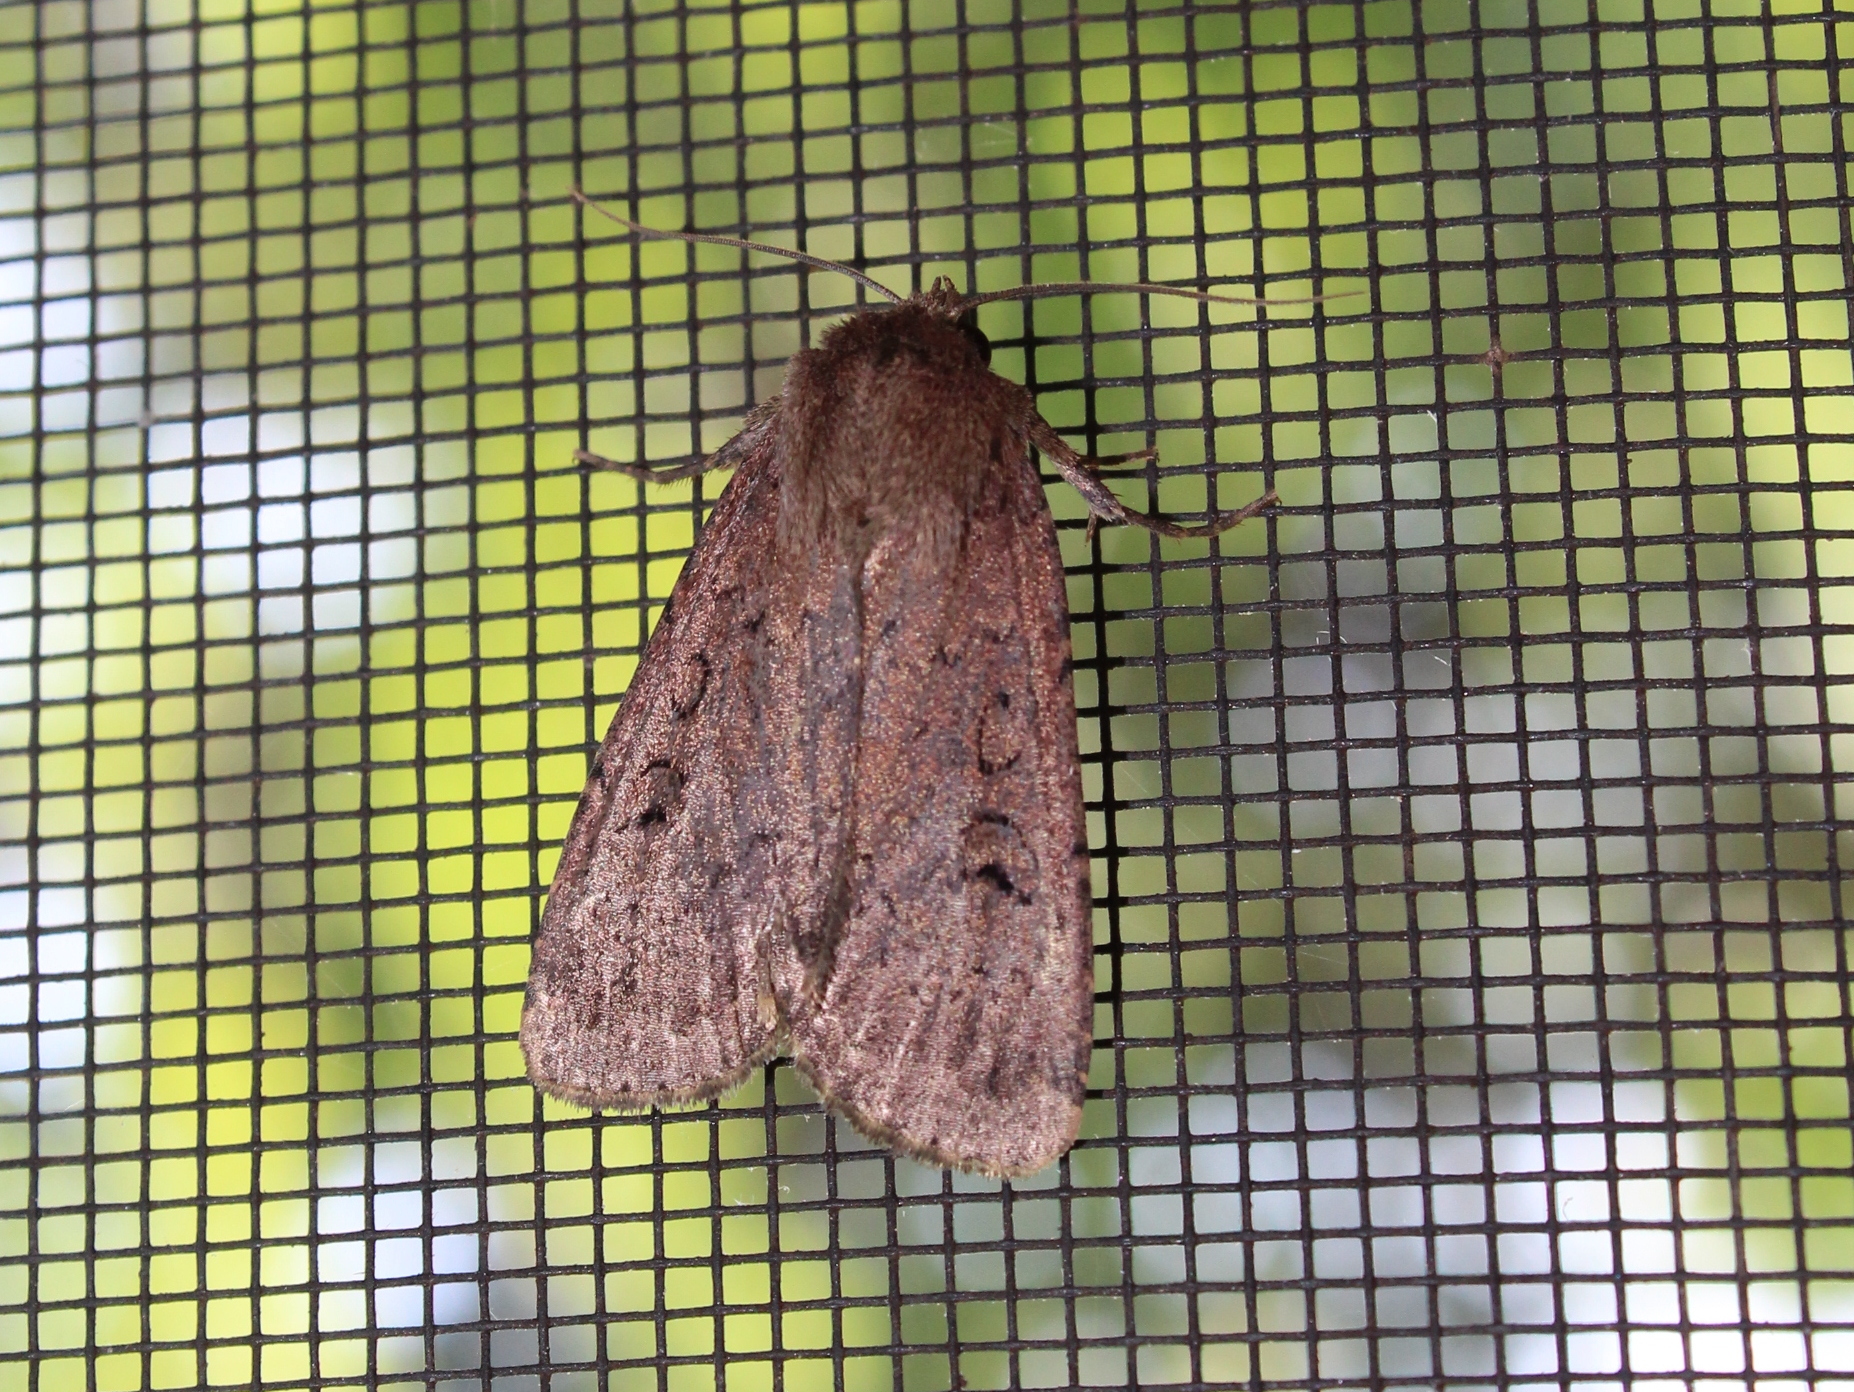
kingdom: Animalia
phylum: Arthropoda
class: Insecta
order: Lepidoptera
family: Noctuidae
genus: Graphiphora
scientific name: Graphiphora augur
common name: Double dart
